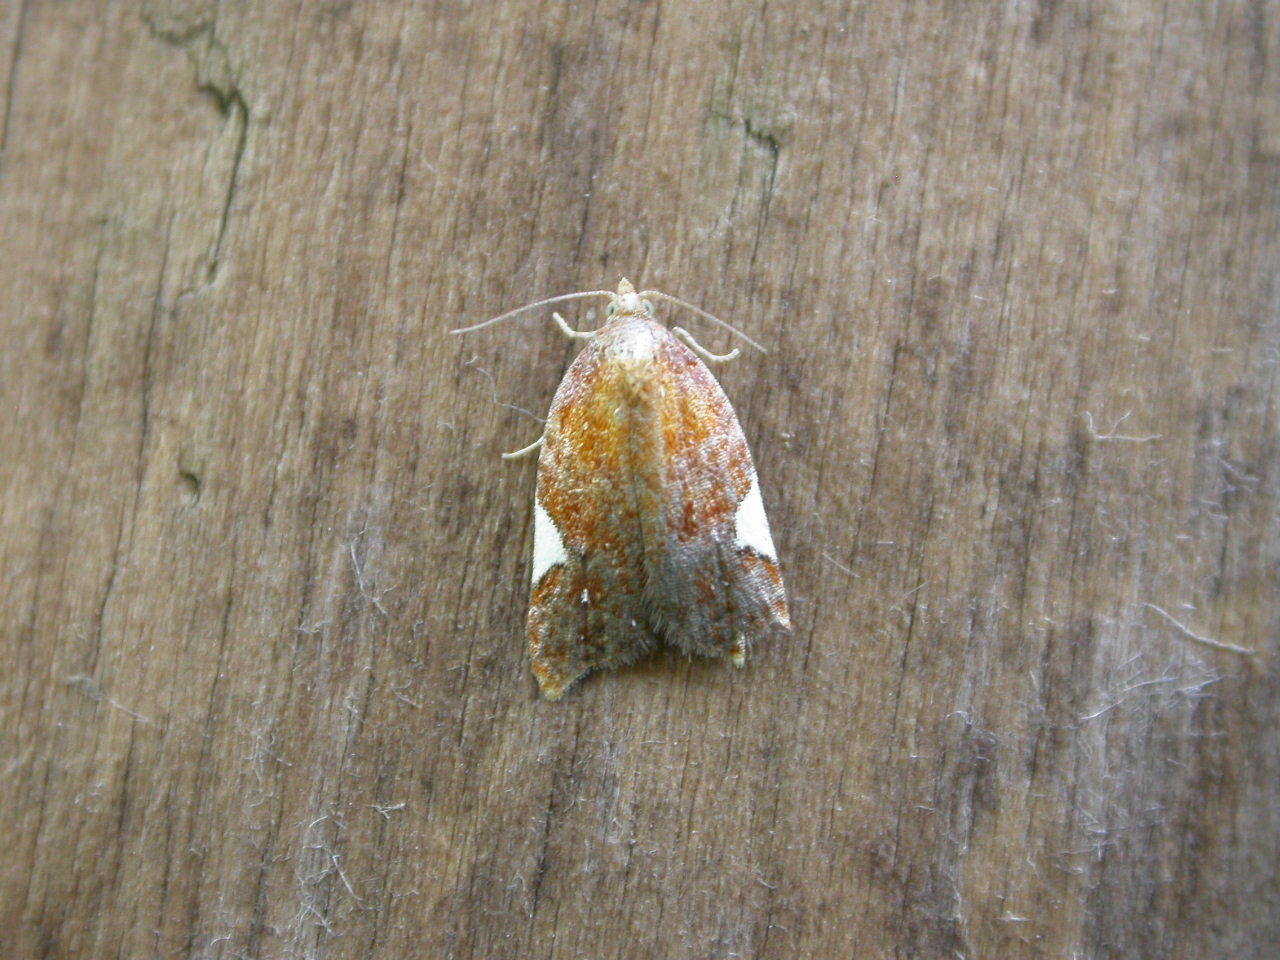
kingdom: Animalia
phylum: Arthropoda
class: Insecta
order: Lepidoptera
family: Tortricidae
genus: Acleris
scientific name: Acleris holmiana
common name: Golden leafroller moth
